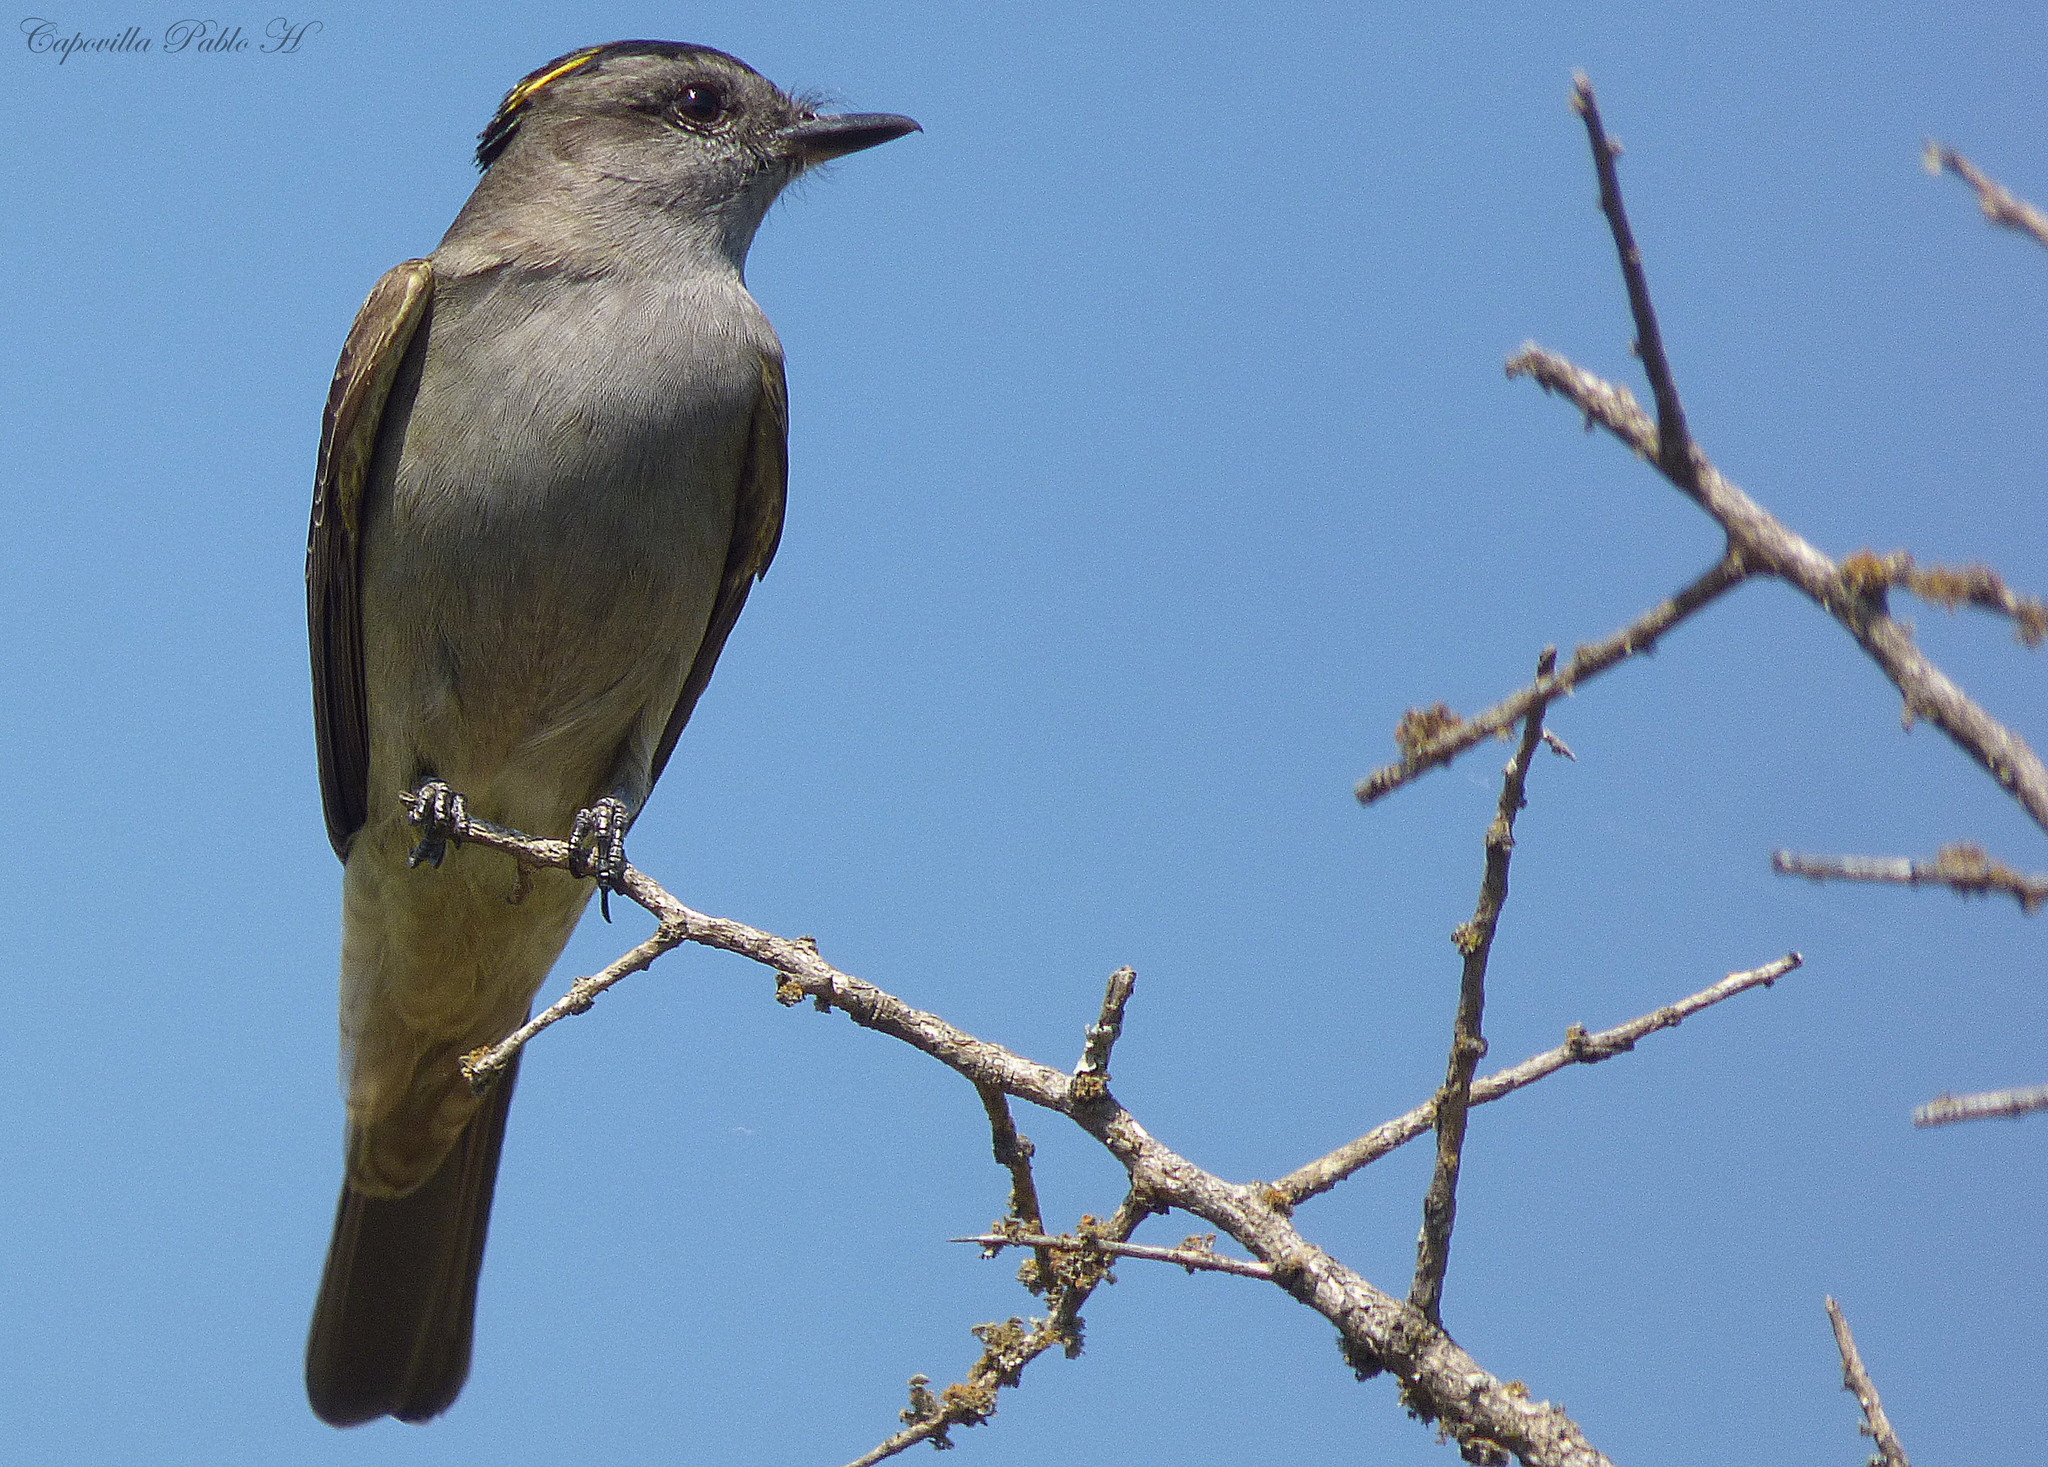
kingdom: Animalia
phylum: Chordata
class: Aves
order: Passeriformes
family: Tyrannidae
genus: Empidonomus
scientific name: Empidonomus aurantioatrocristatus
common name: Crowned slaty flycatcher
